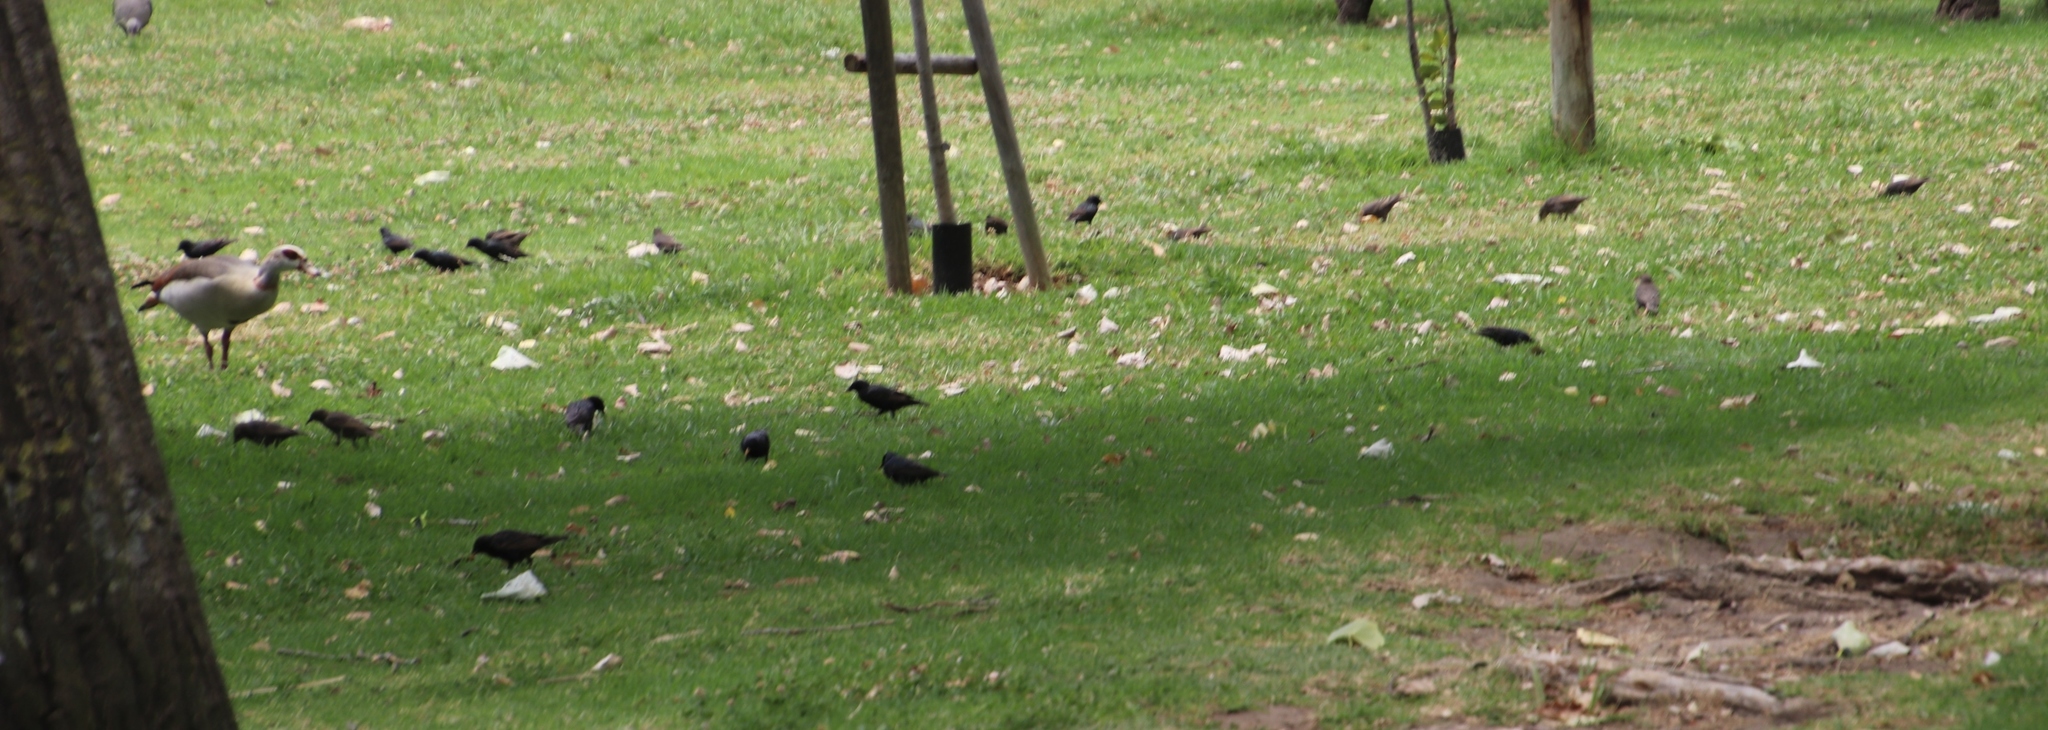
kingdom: Animalia
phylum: Chordata
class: Aves
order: Passeriformes
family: Sturnidae
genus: Sturnus
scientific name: Sturnus vulgaris
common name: Common starling
